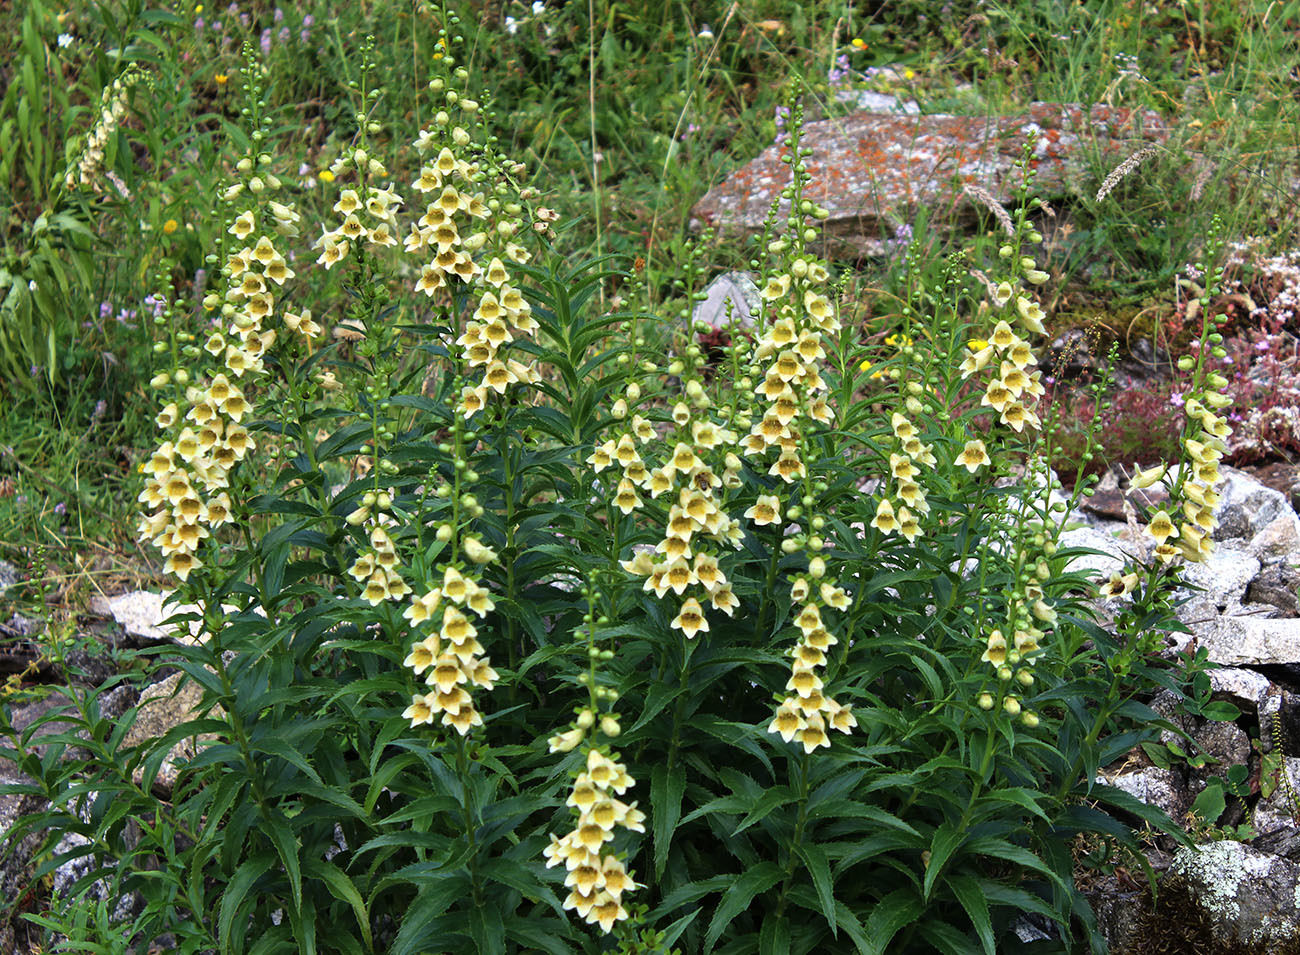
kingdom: Plantae
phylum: Tracheophyta
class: Magnoliopsida
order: Lamiales
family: Plantaginaceae
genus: Digitalis
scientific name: Digitalis ciliata
